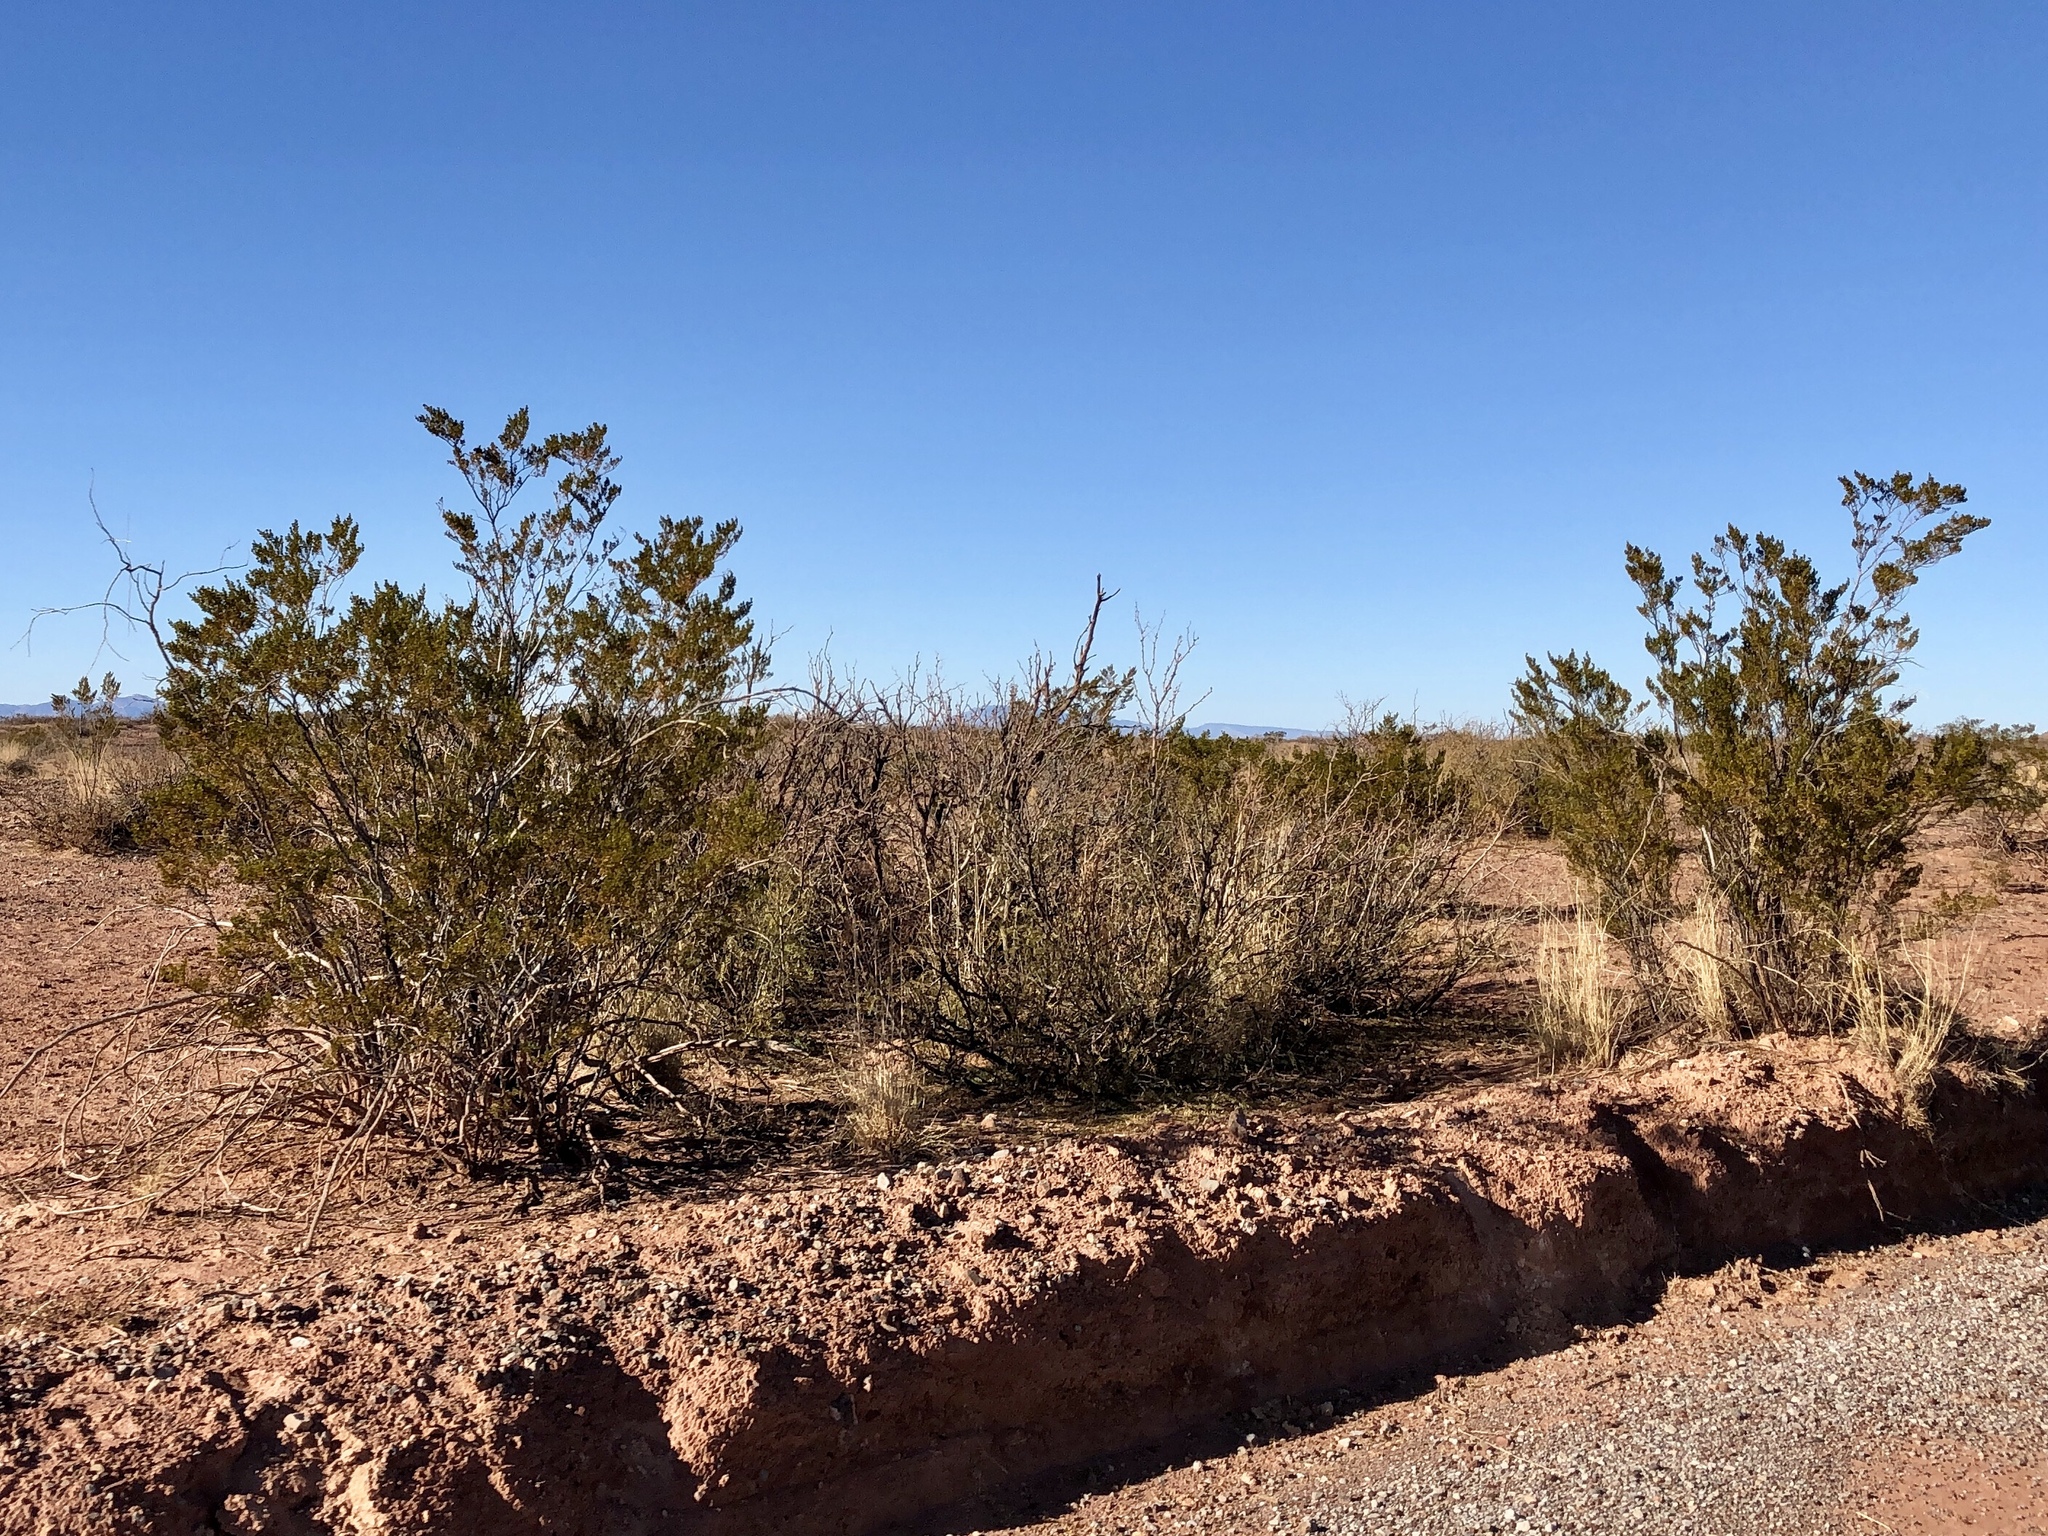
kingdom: Plantae
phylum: Tracheophyta
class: Magnoliopsida
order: Zygophyllales
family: Zygophyllaceae
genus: Larrea
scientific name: Larrea tridentata
